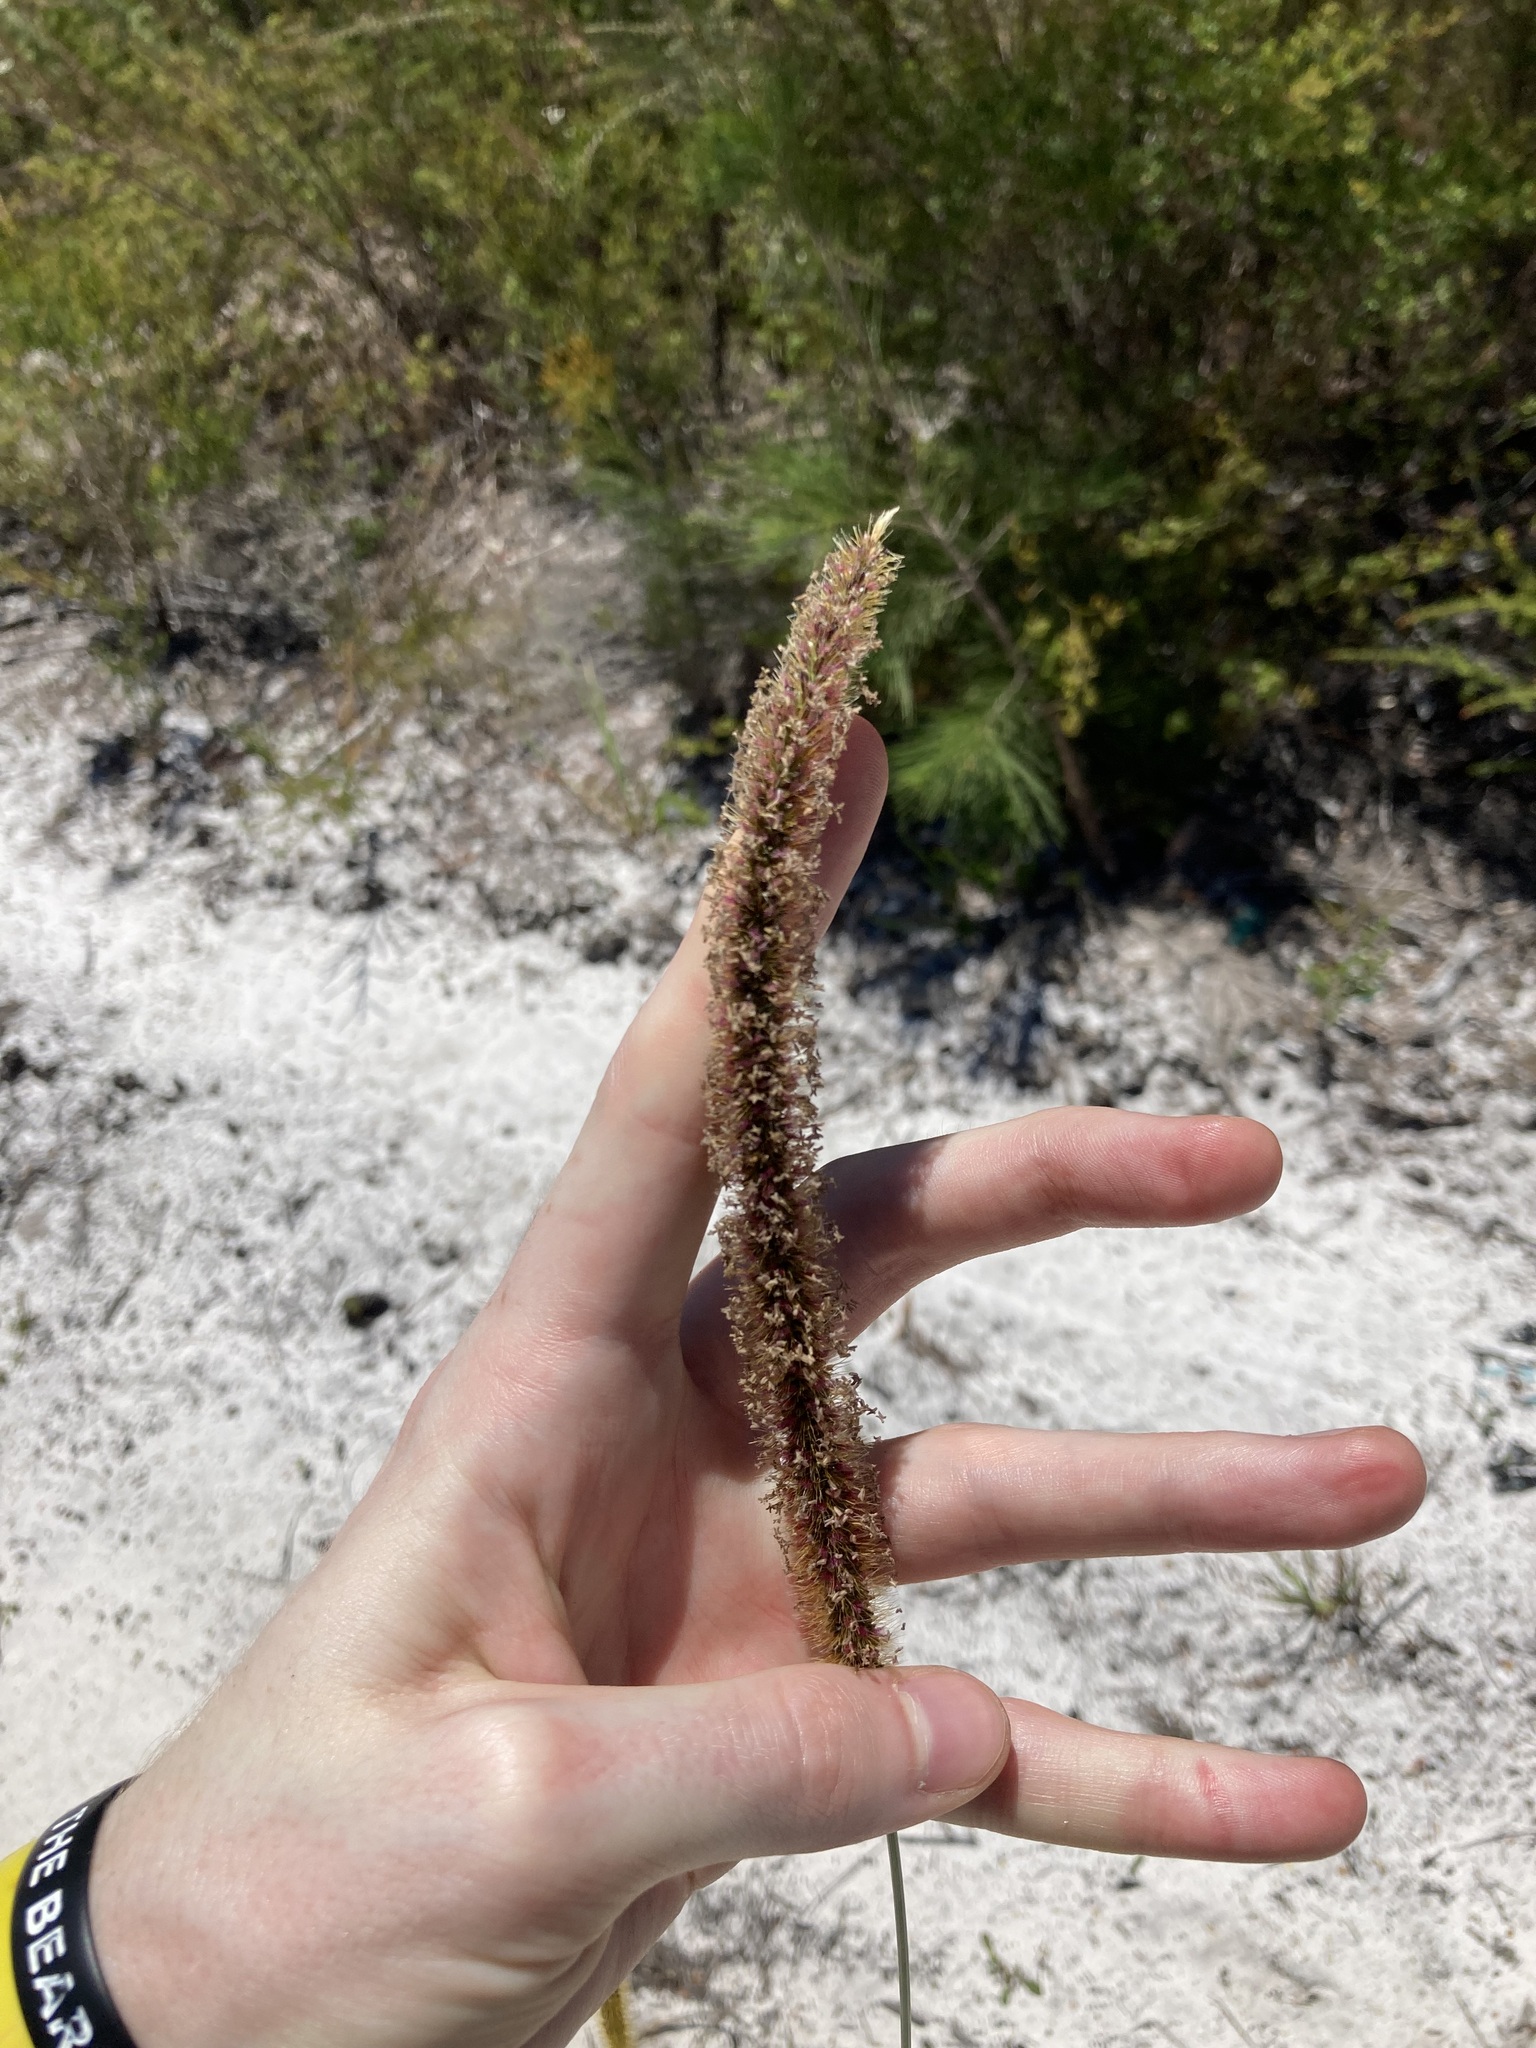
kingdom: Plantae
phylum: Tracheophyta
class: Liliopsida
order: Poales
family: Poaceae
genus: Setaria
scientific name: Setaria sphacelata
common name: African bristlegrass
